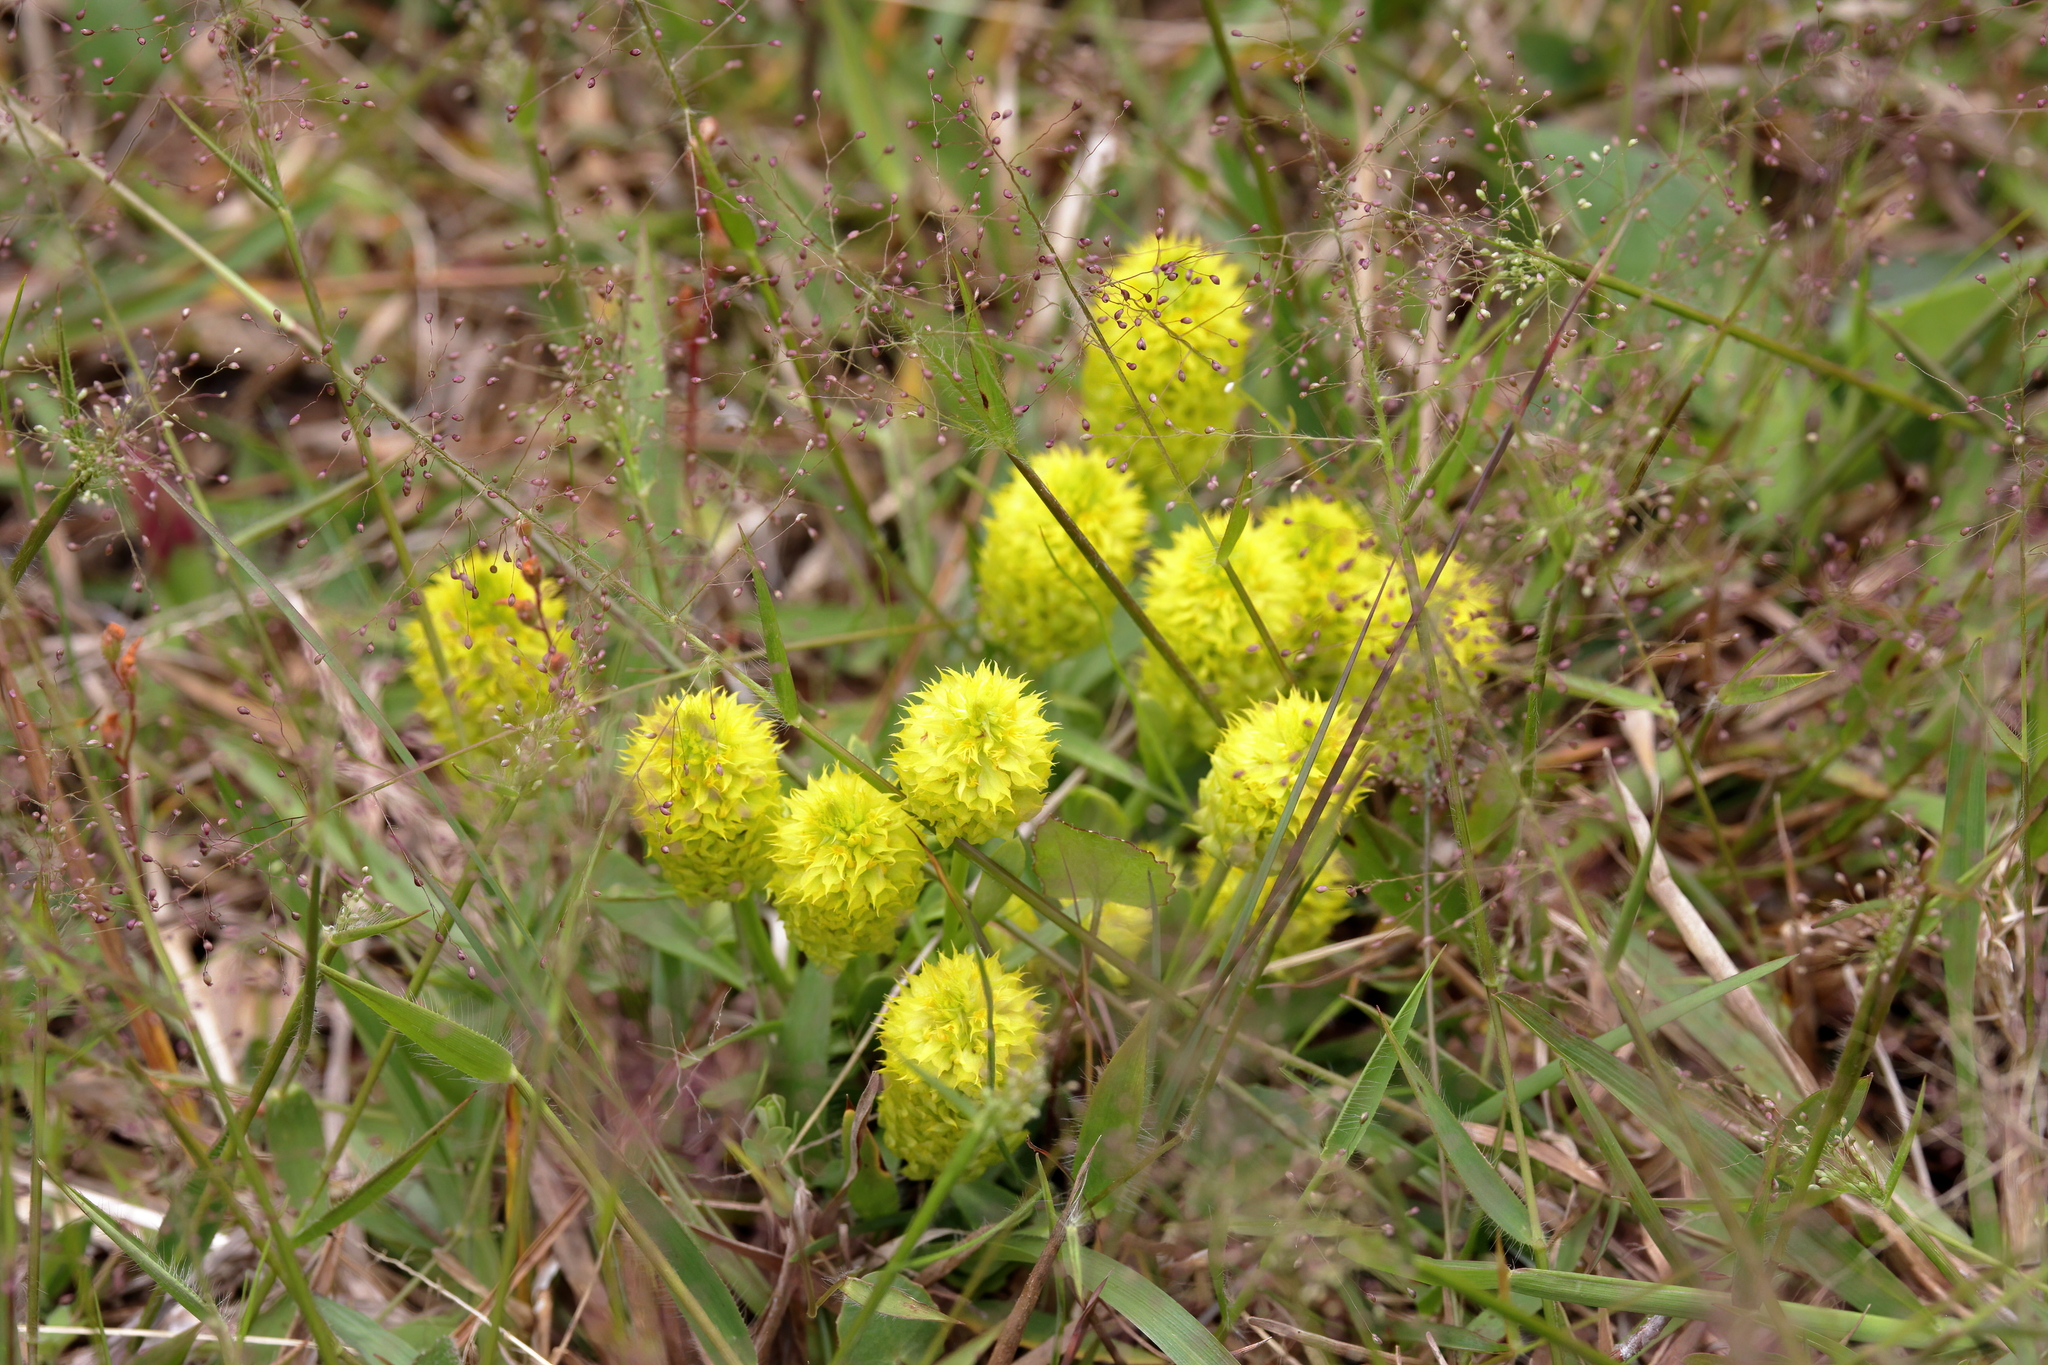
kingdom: Plantae
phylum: Tracheophyta
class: Magnoliopsida
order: Fabales
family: Polygalaceae
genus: Polygala
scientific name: Polygala nana
